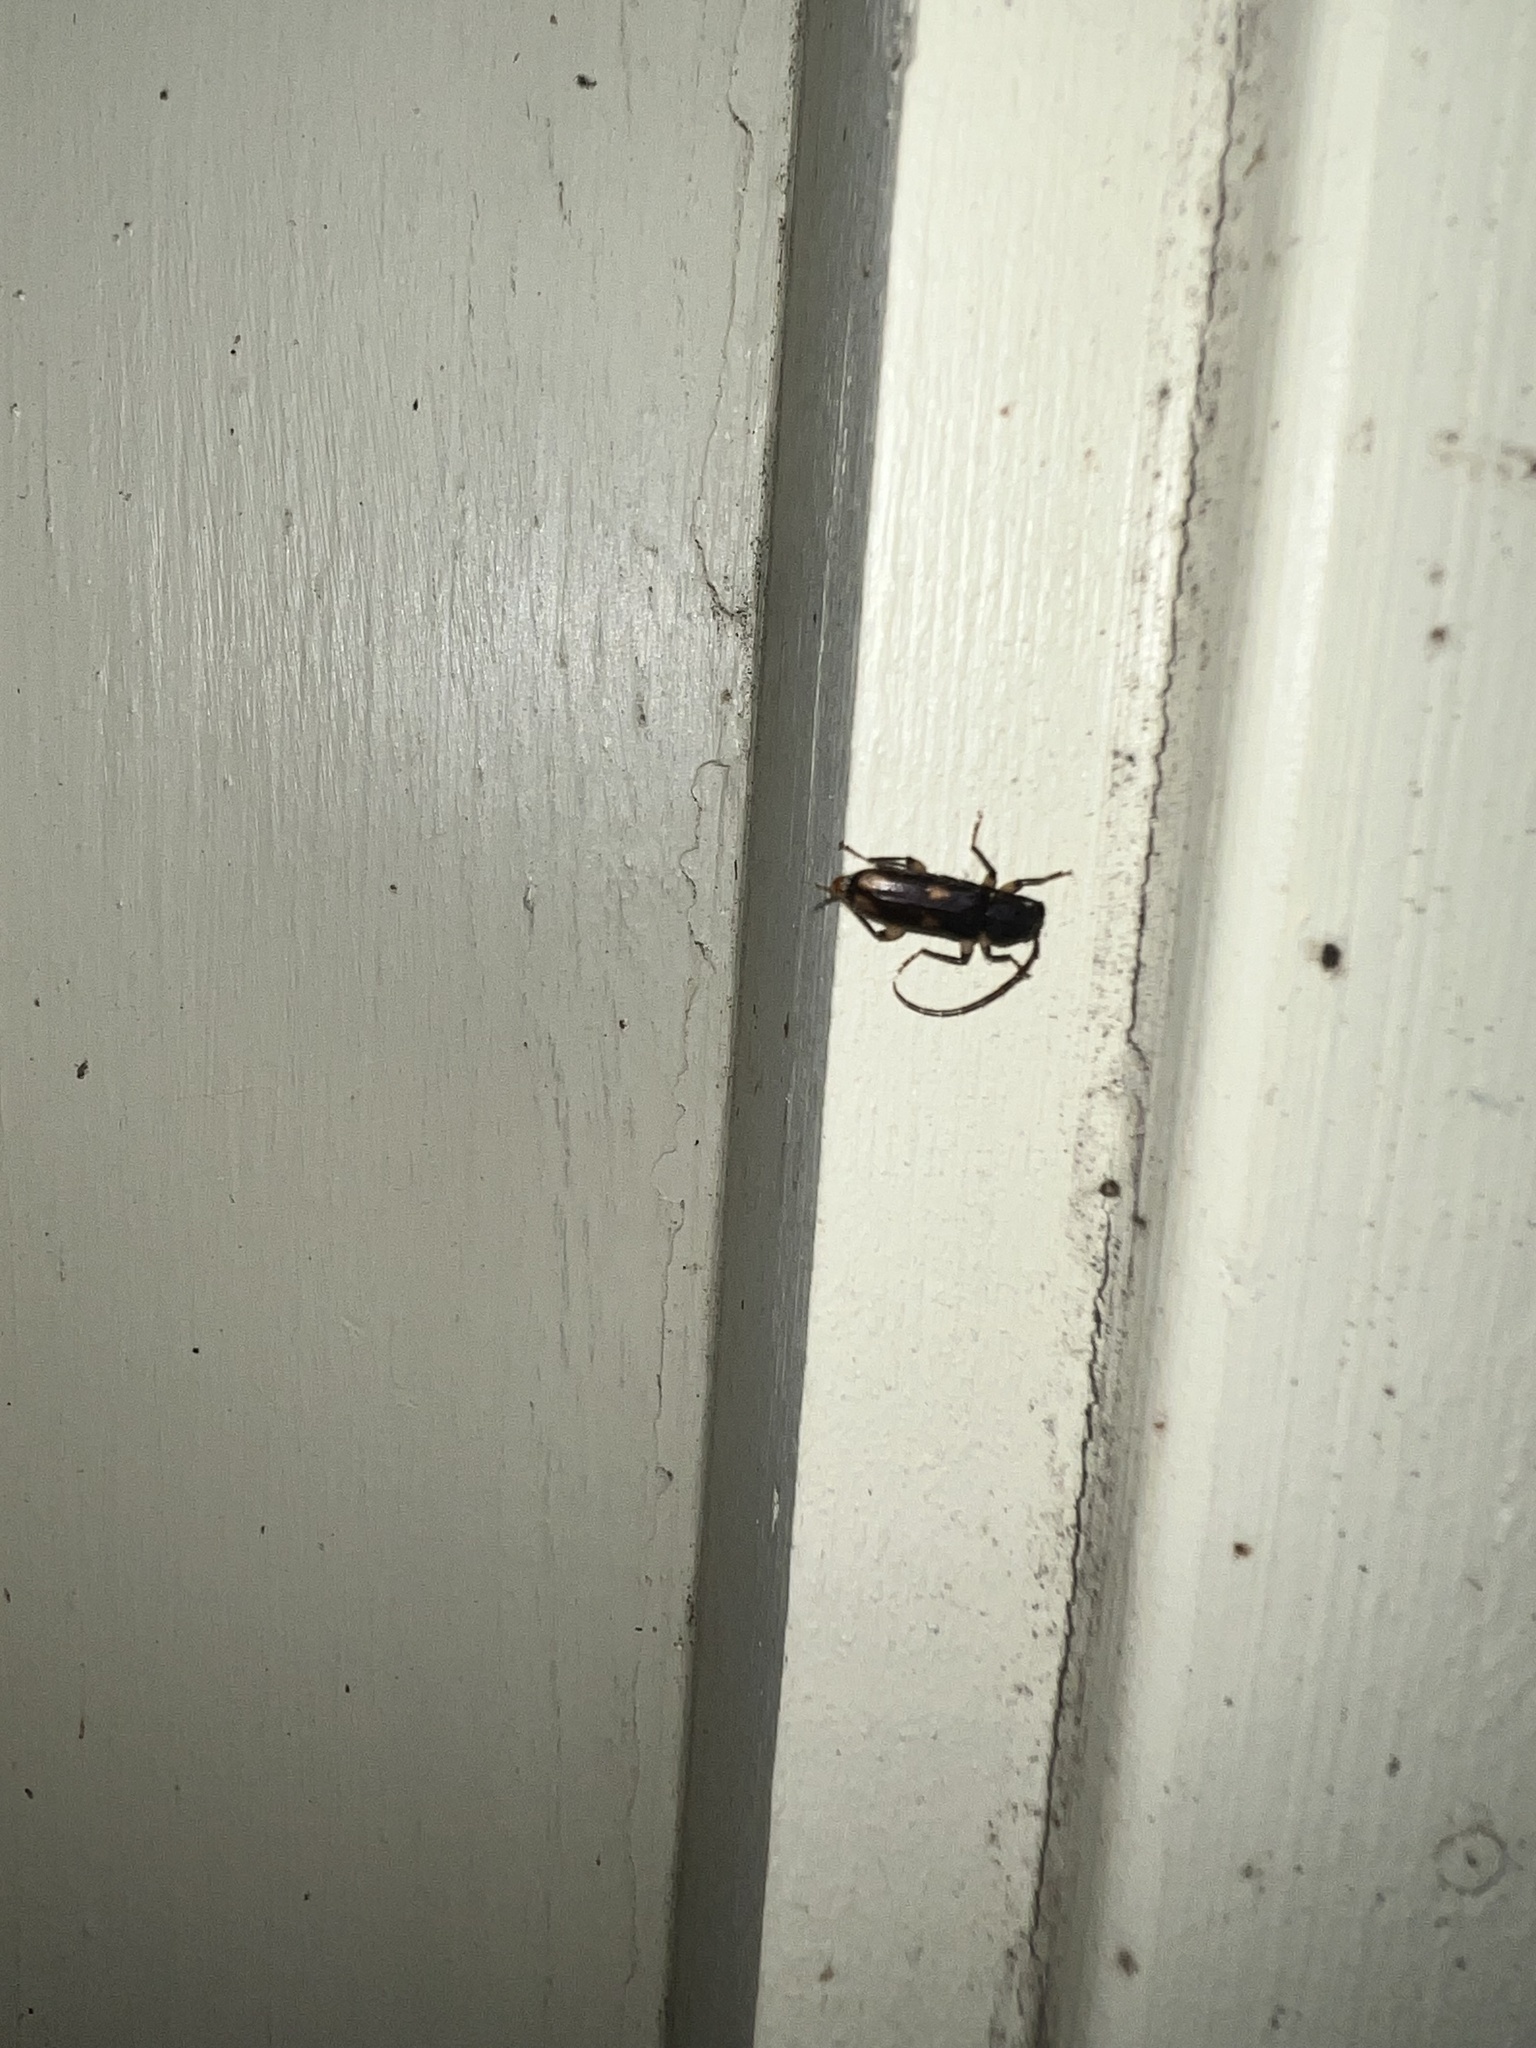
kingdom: Animalia
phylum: Arthropoda
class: Insecta
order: Coleoptera
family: Cerambycidae
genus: Tylonotus
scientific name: Tylonotus bimaculatus
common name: Ash and privet borer
